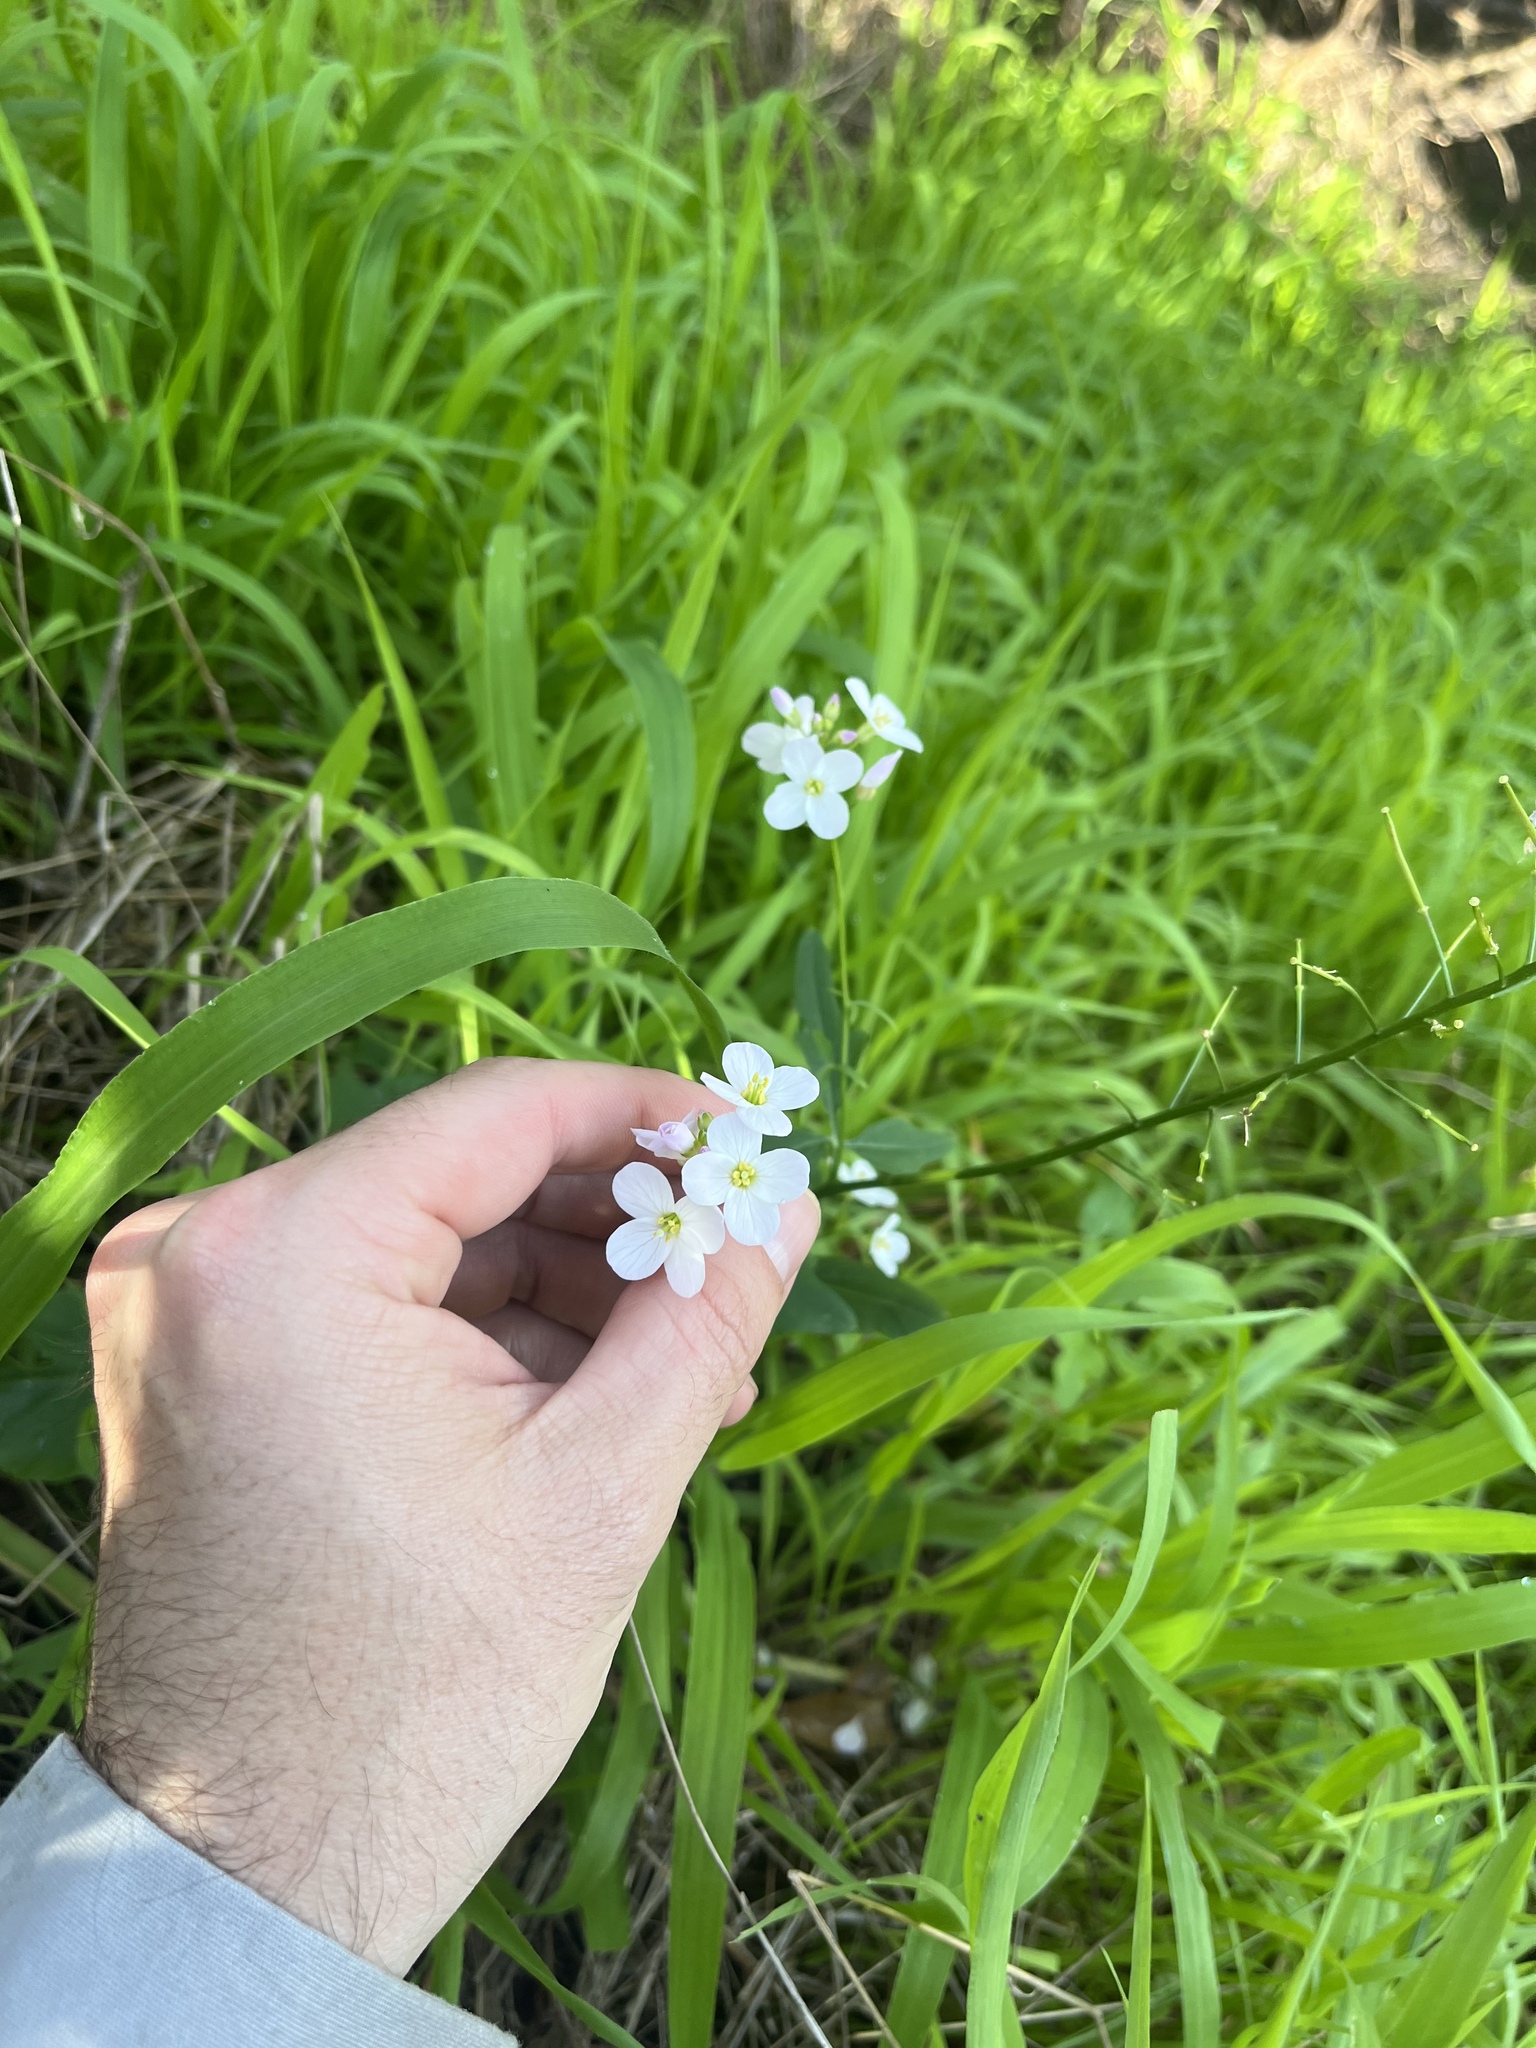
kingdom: Plantae
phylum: Tracheophyta
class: Magnoliopsida
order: Brassicales
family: Brassicaceae
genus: Cardamine
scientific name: Cardamine californica
